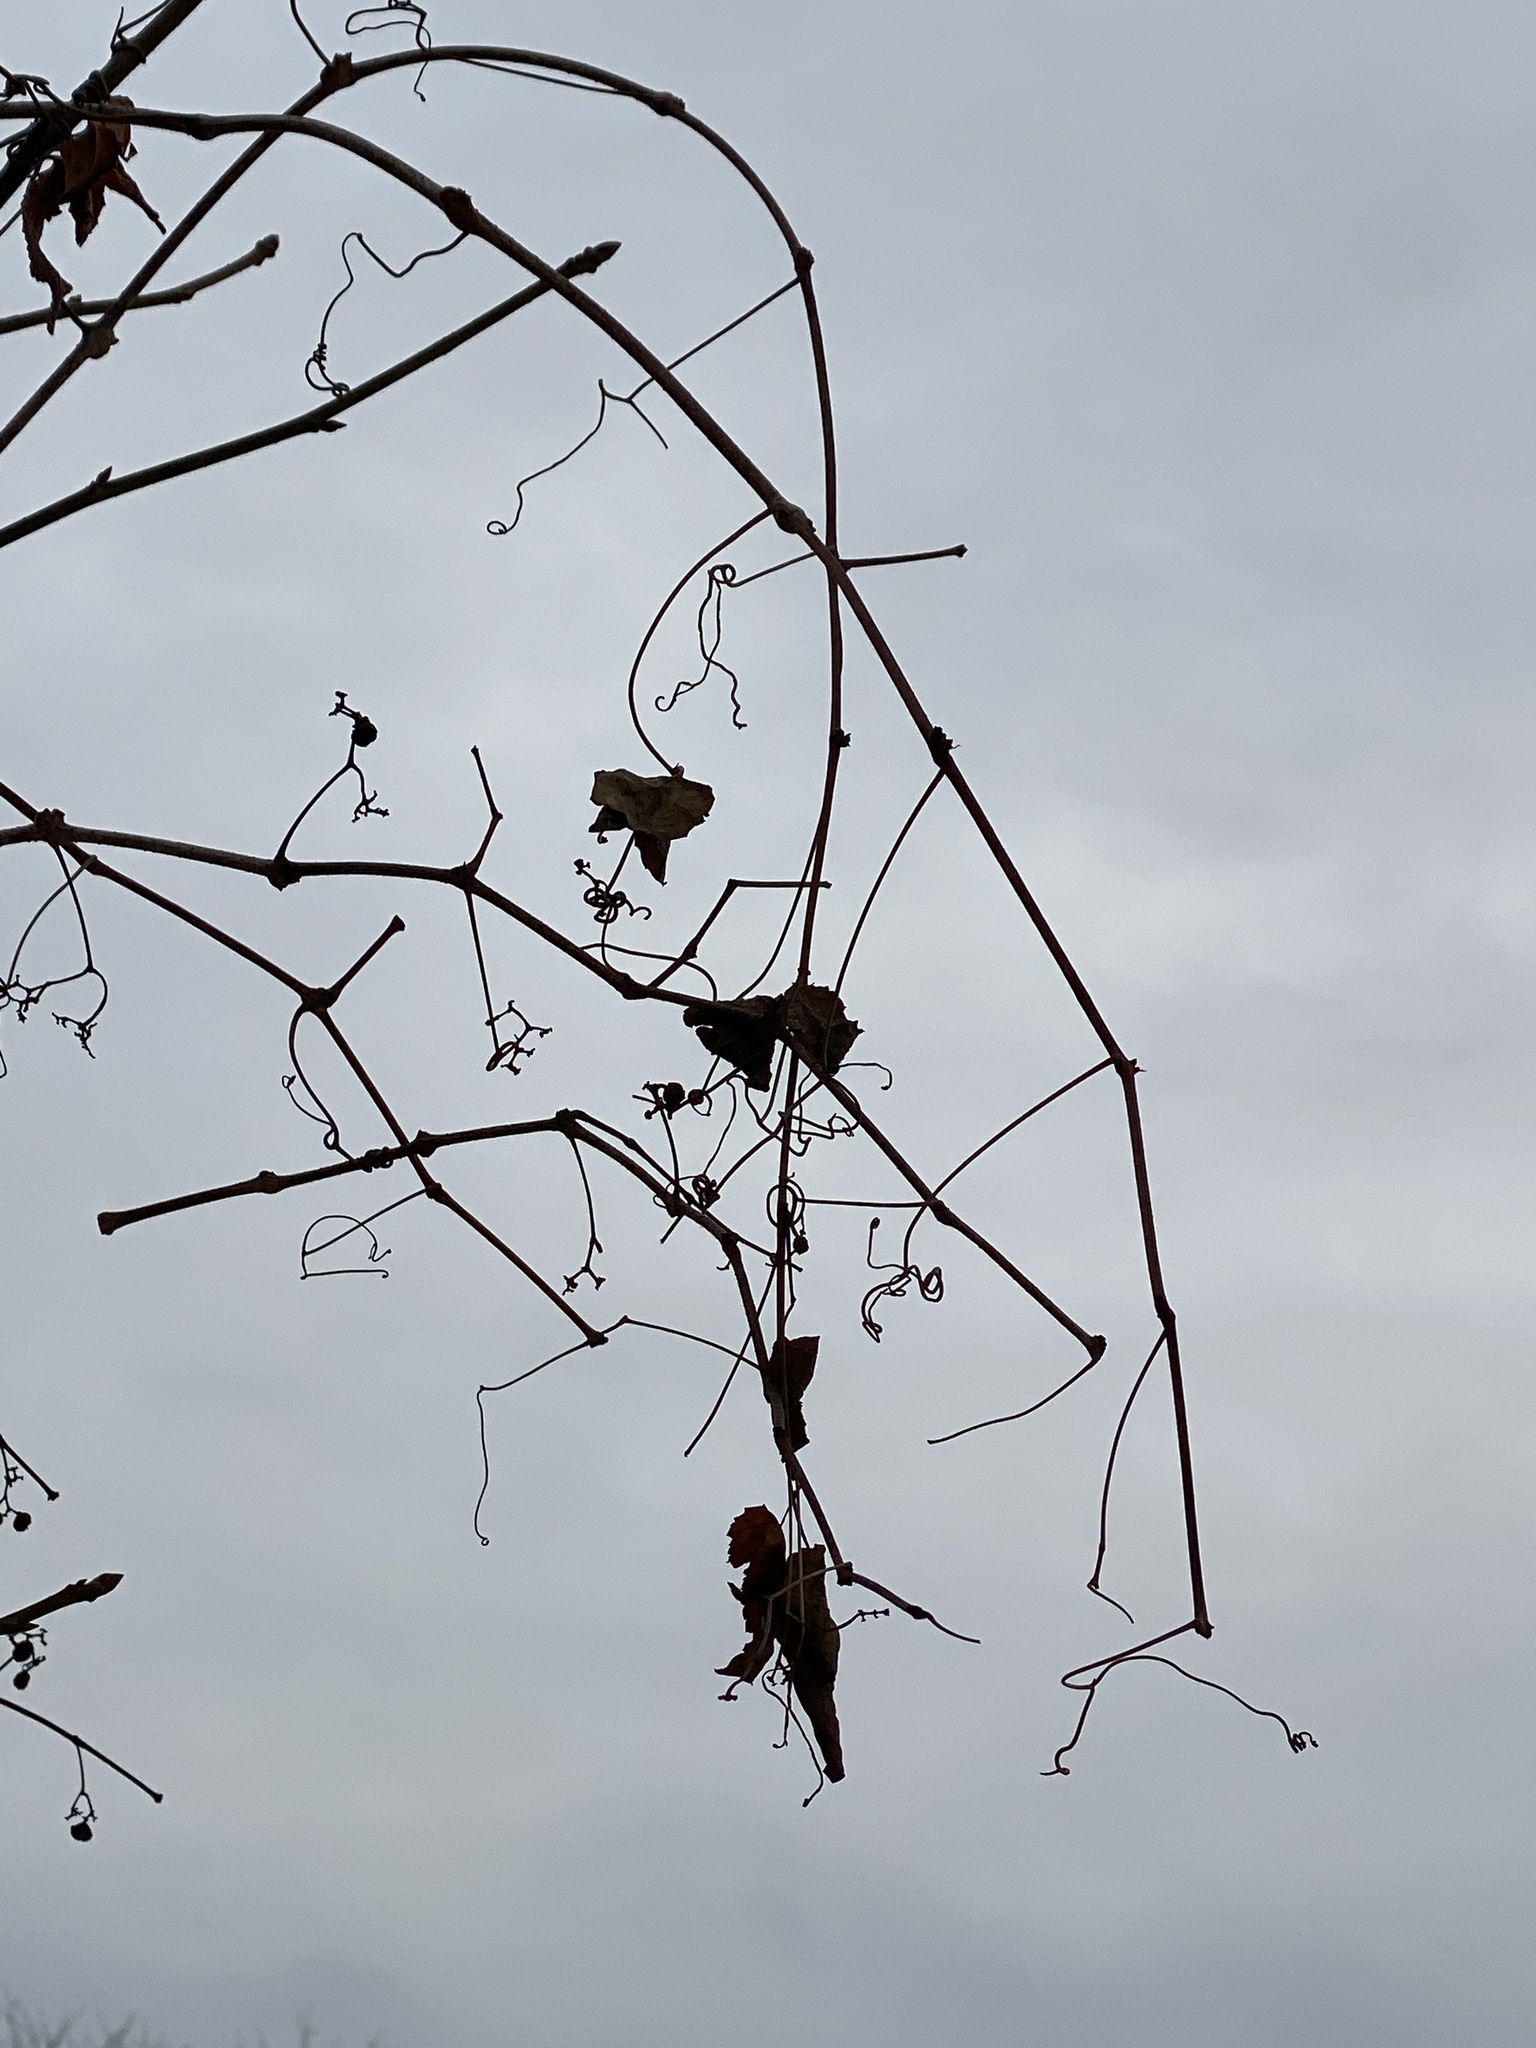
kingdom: Plantae
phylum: Tracheophyta
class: Magnoliopsida
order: Vitales
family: Vitaceae
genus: Ampelopsis
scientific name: Ampelopsis glandulosa
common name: Amur peppervine
